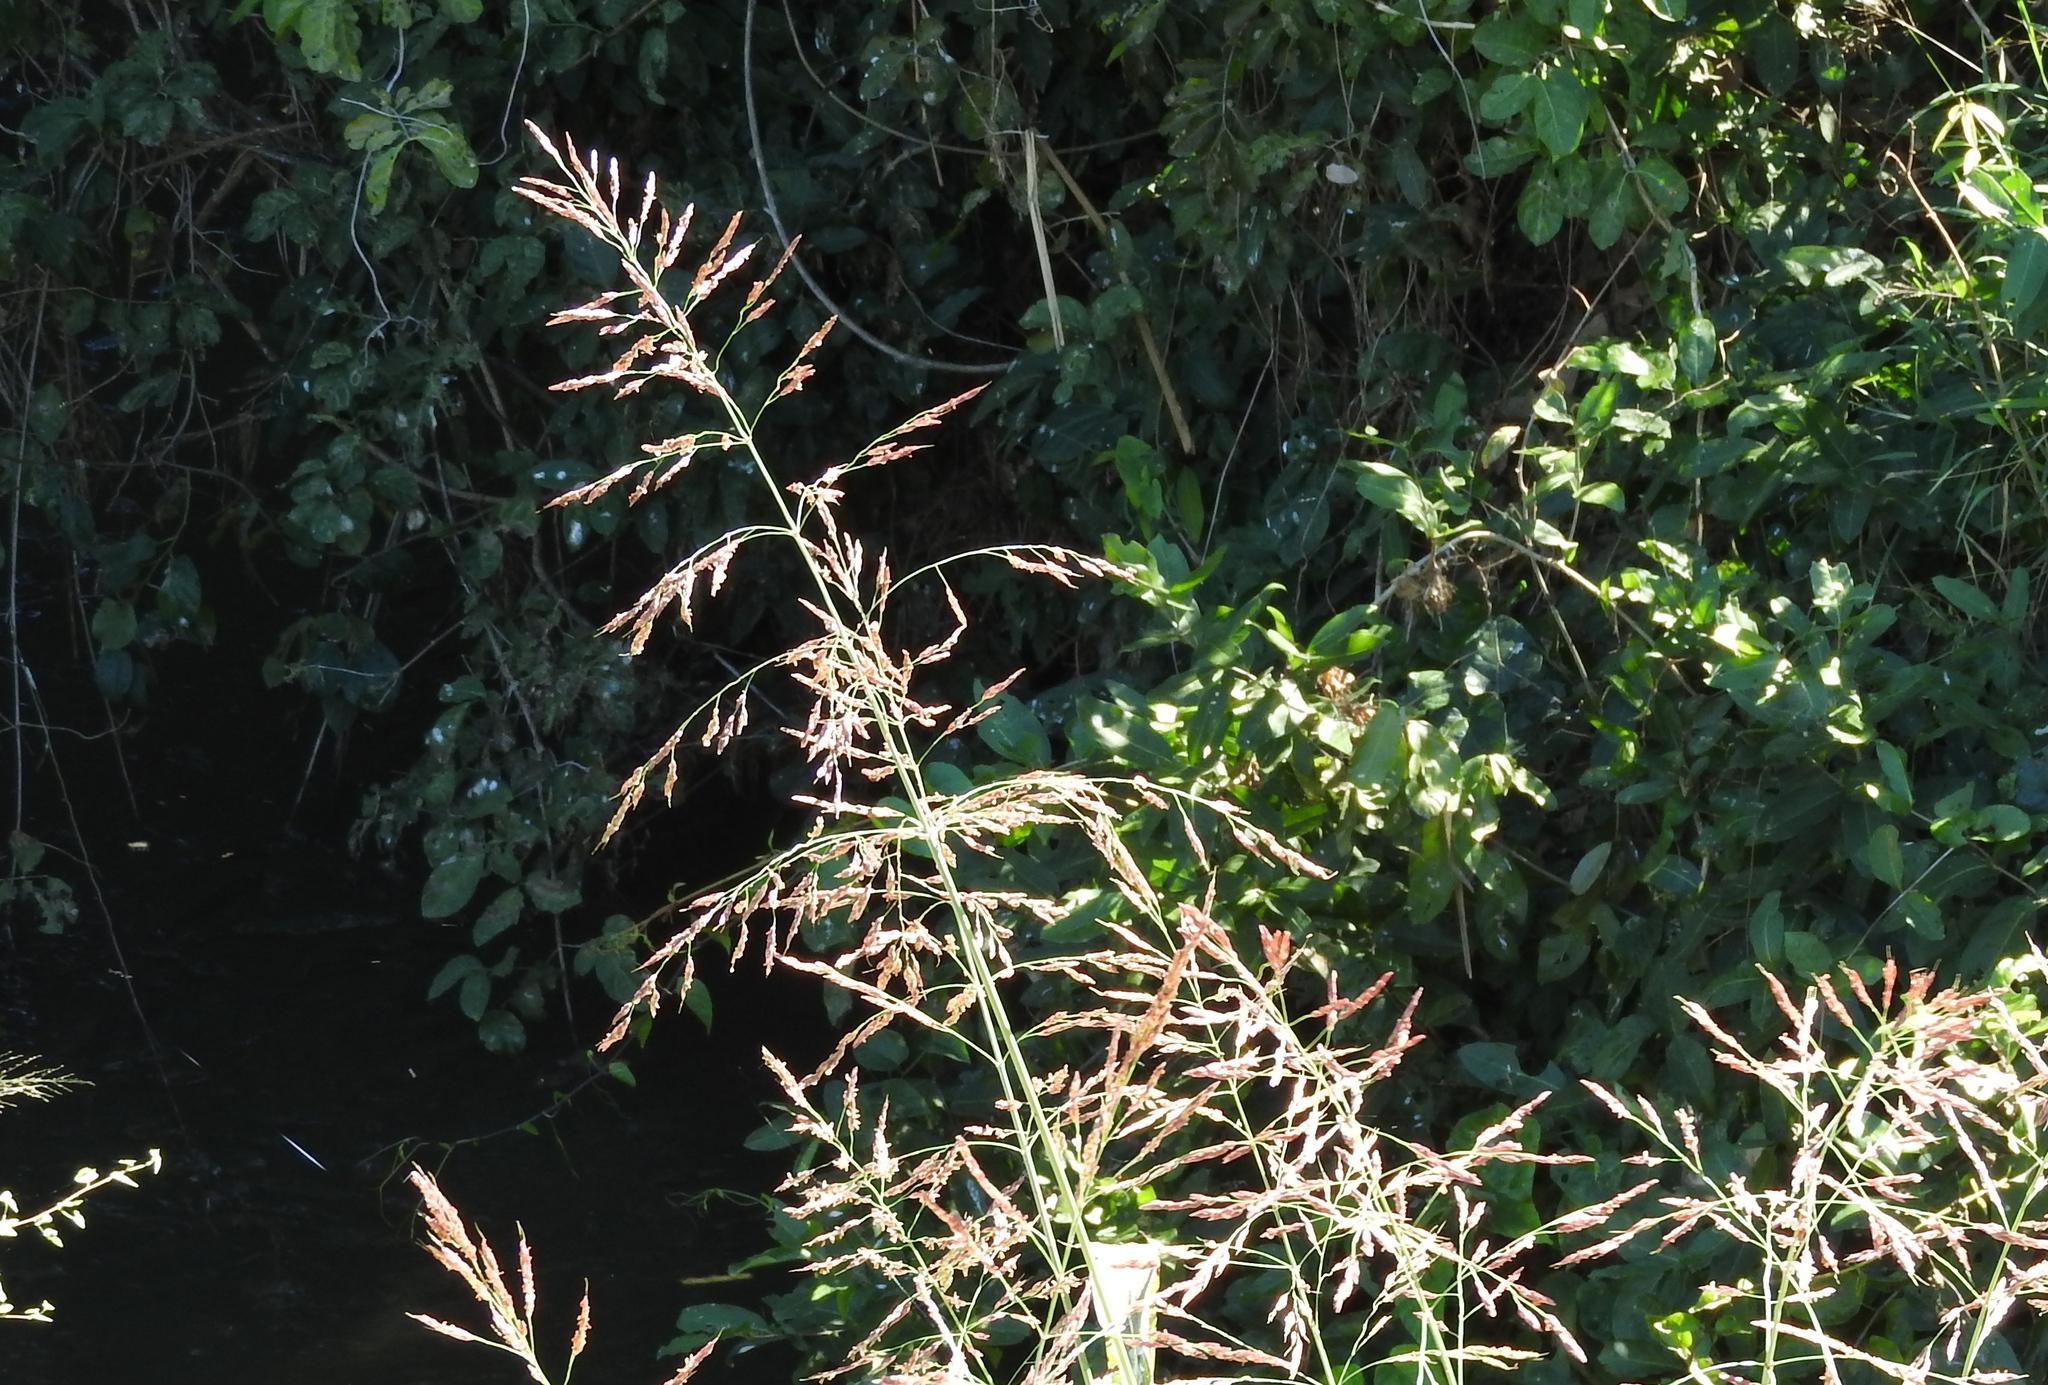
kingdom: Plantae
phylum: Tracheophyta
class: Liliopsida
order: Poales
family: Poaceae
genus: Sorghum
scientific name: Sorghum halepense
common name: Johnson-grass
